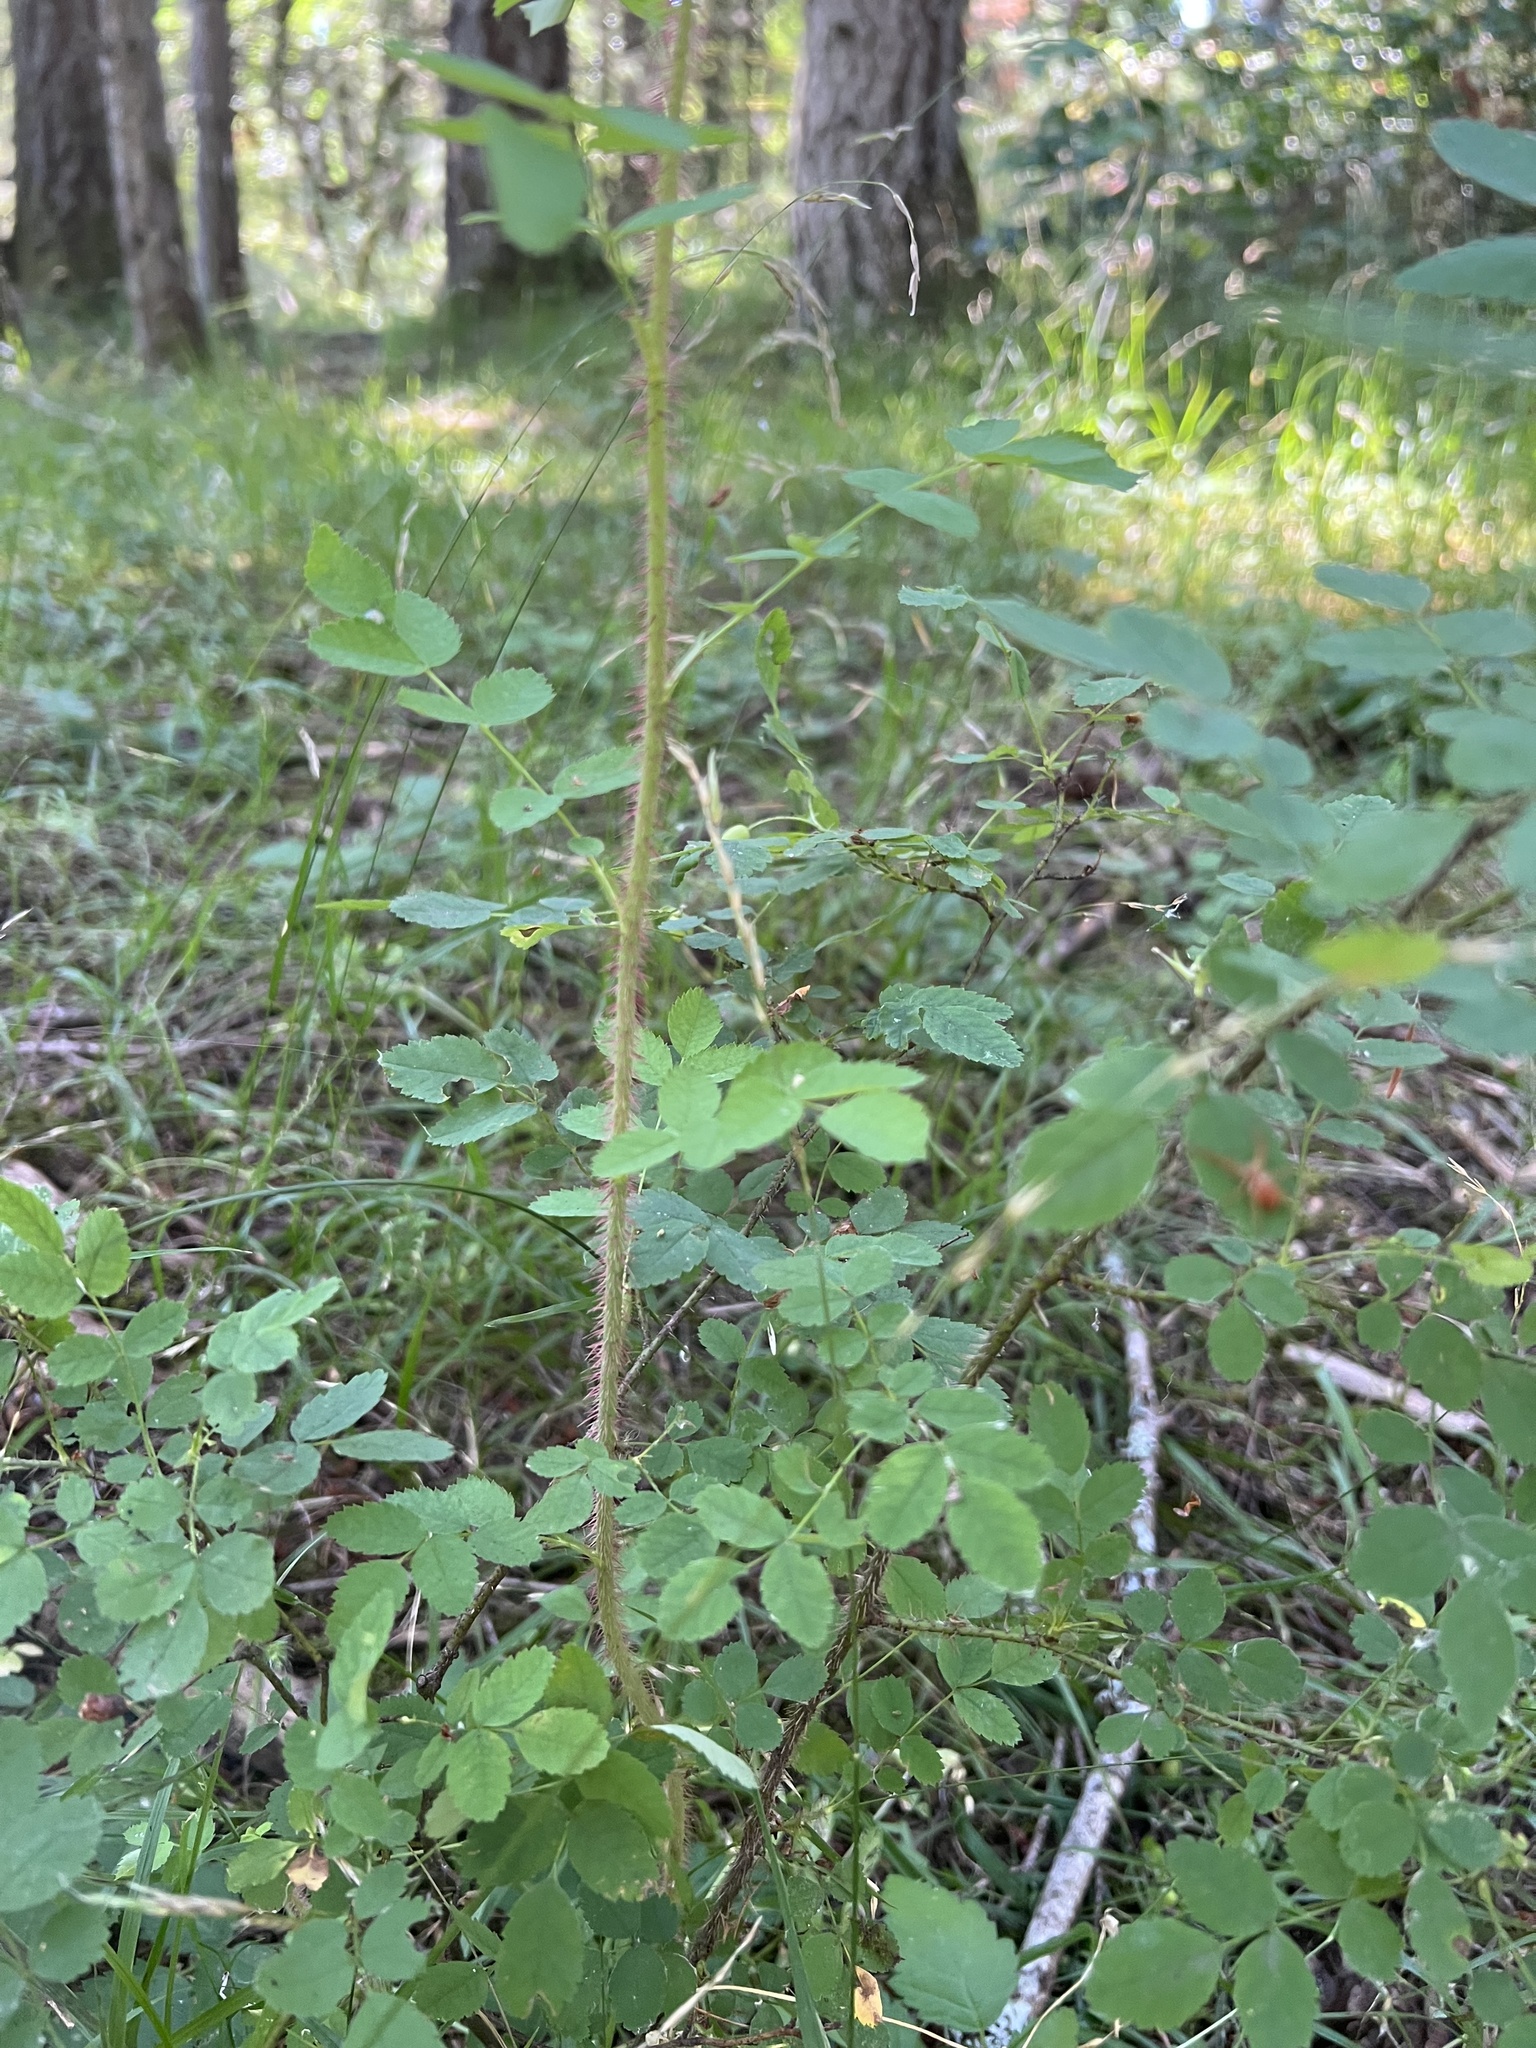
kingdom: Plantae
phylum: Tracheophyta
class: Magnoliopsida
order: Rosales
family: Rosaceae
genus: Rosa
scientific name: Rosa gymnocarpa
